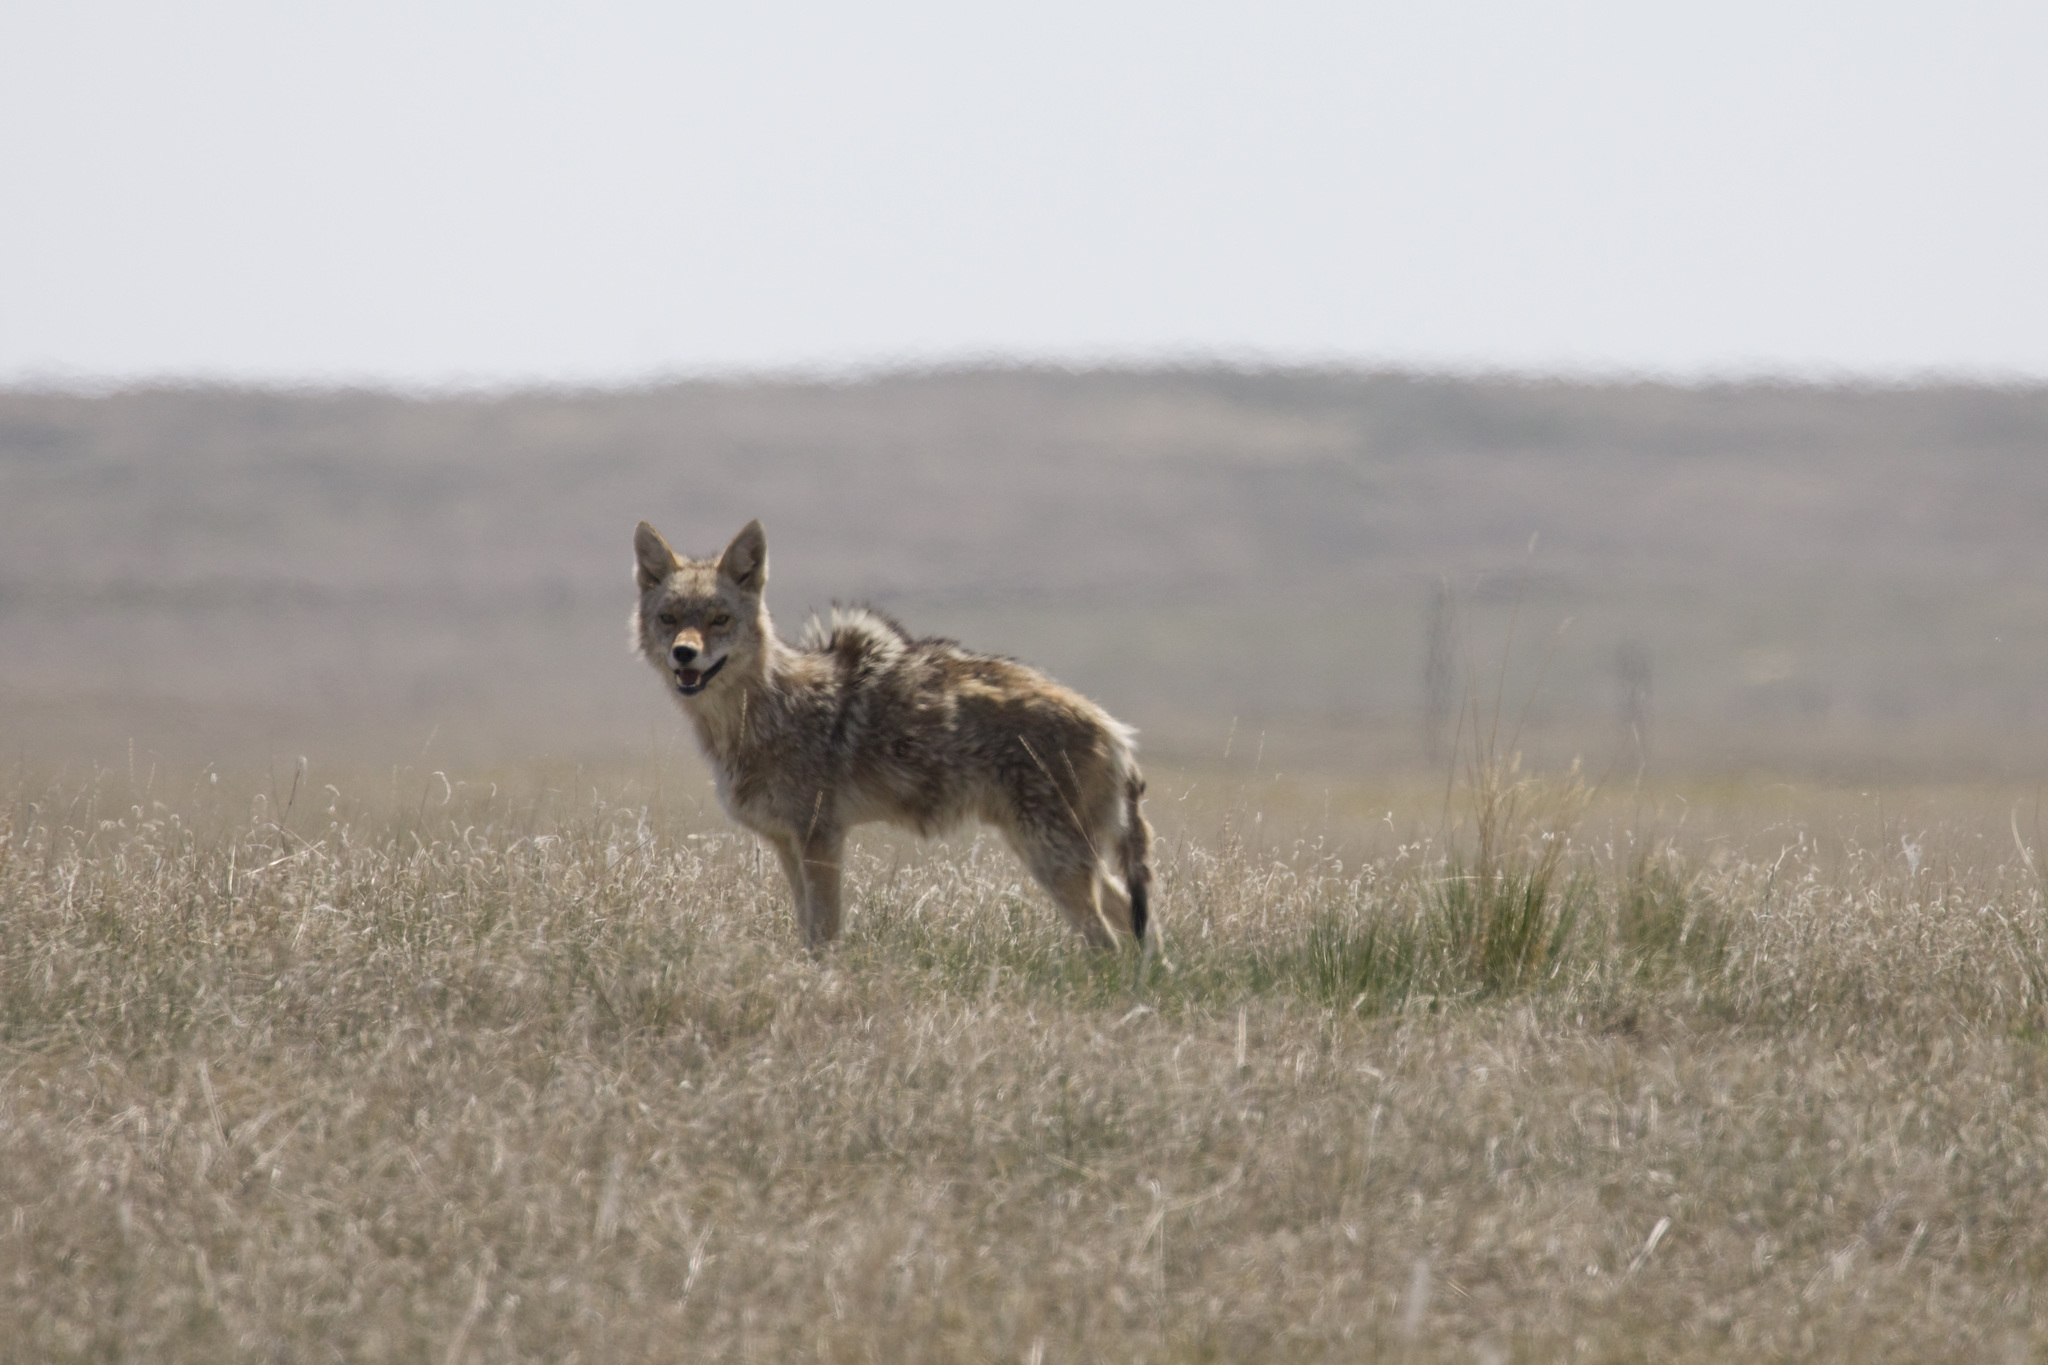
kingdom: Animalia
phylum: Chordata
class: Mammalia
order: Carnivora
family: Canidae
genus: Canis
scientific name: Canis latrans
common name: Coyote
